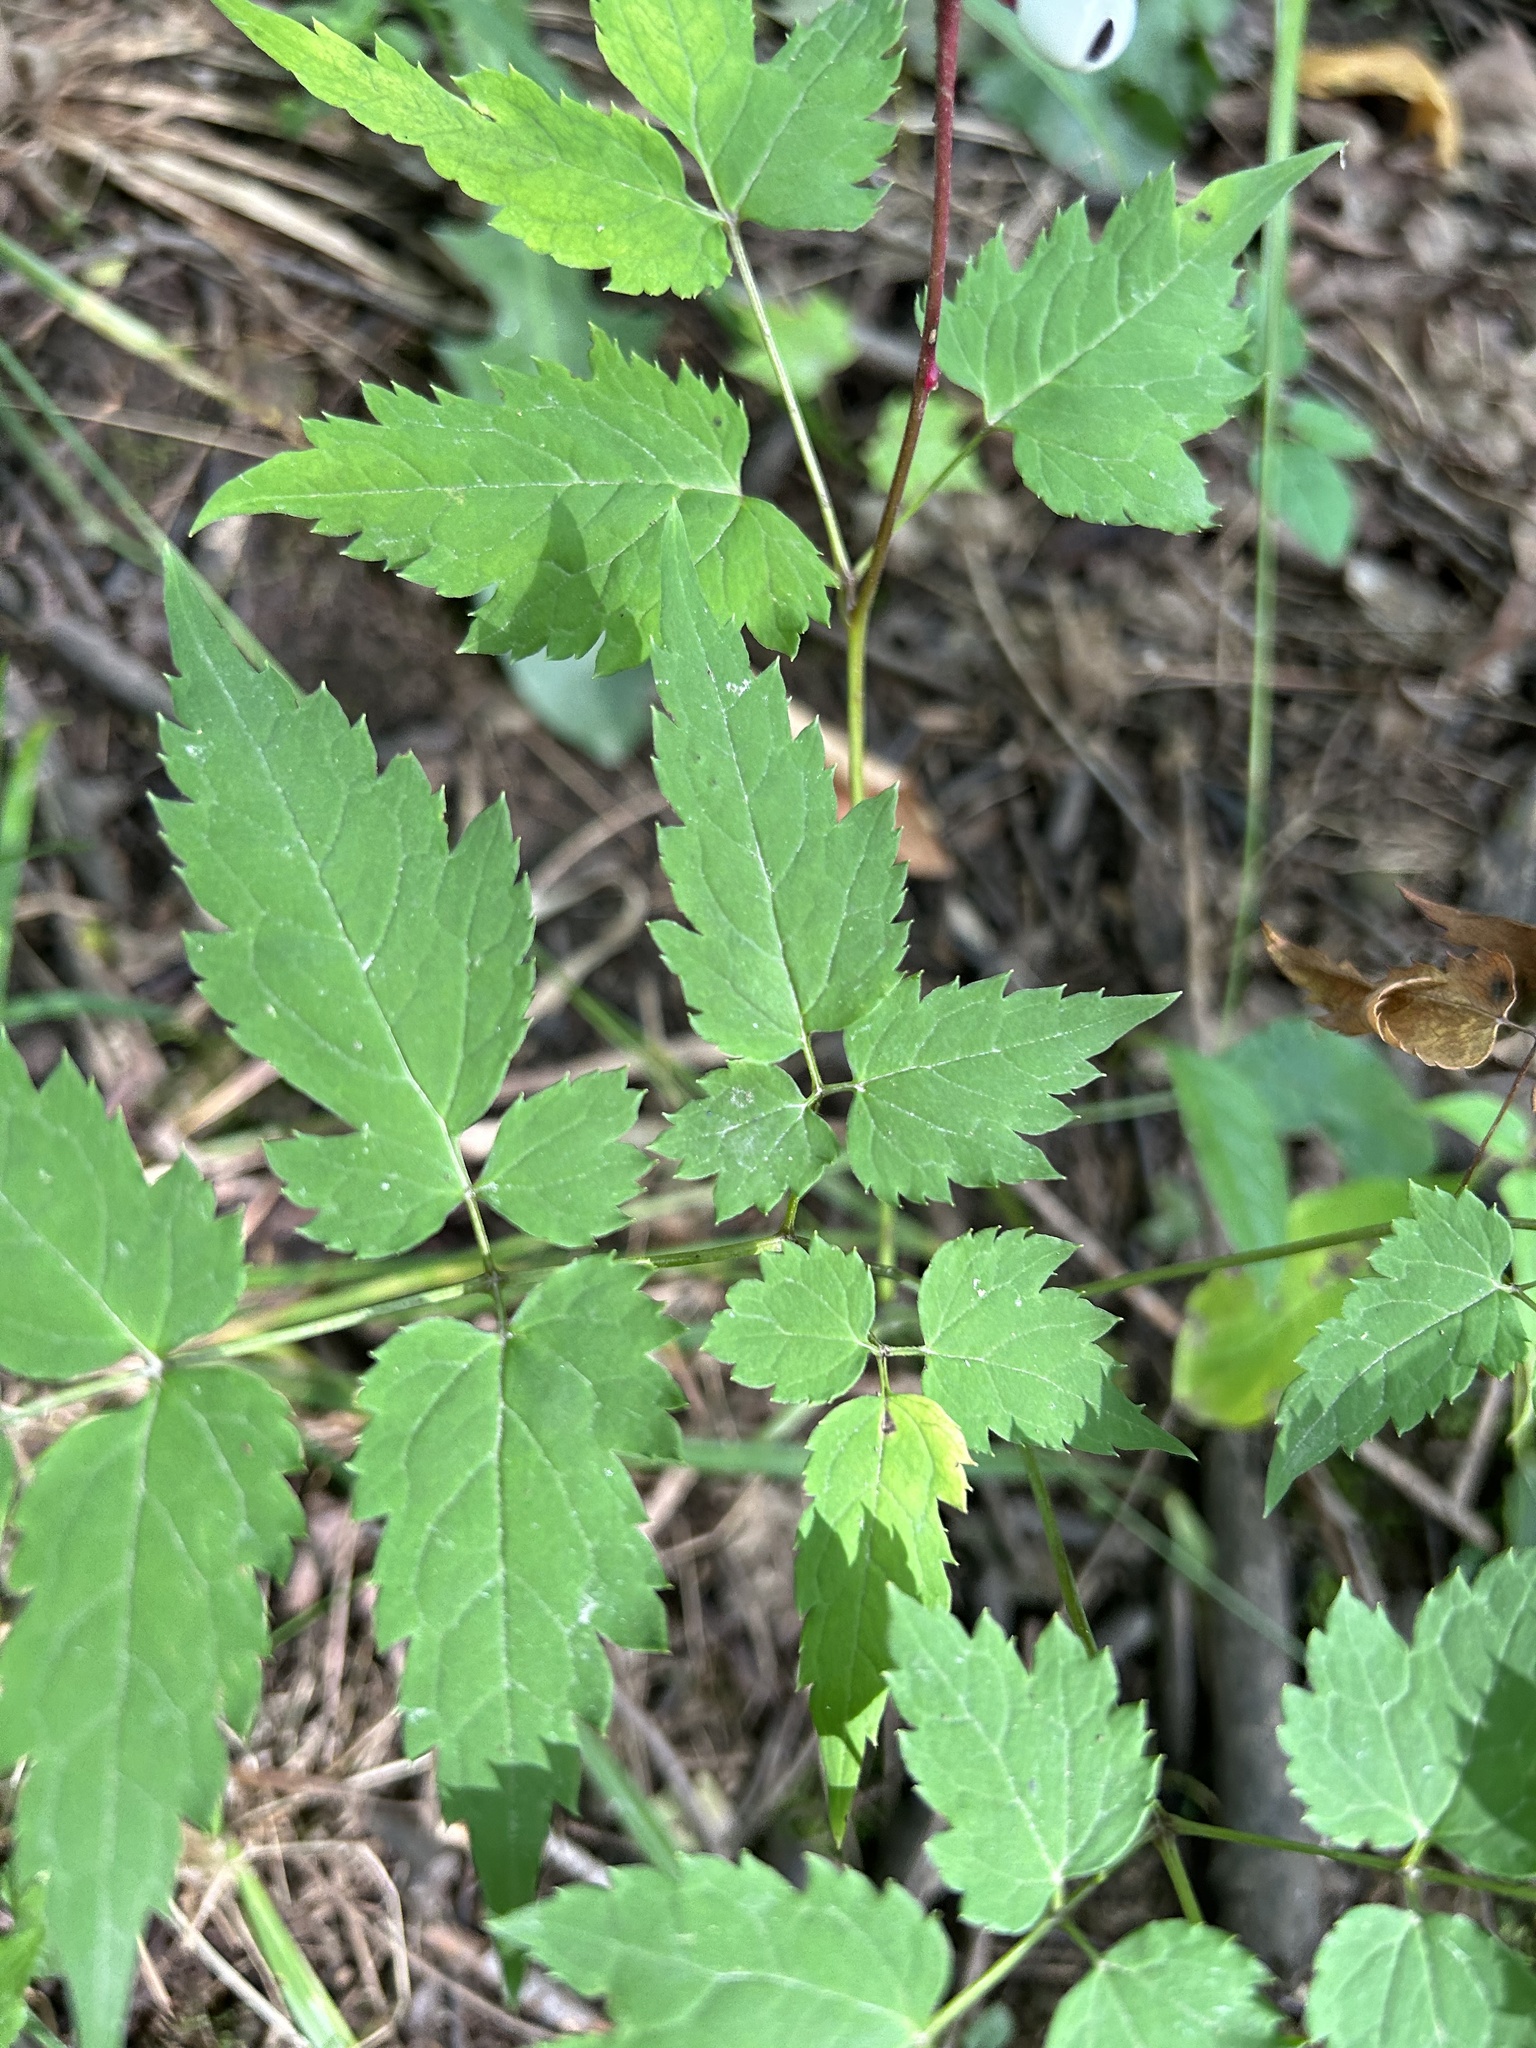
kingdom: Plantae
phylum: Tracheophyta
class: Magnoliopsida
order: Ranunculales
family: Ranunculaceae
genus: Actaea
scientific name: Actaea pachypoda
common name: Doll's-eyes
